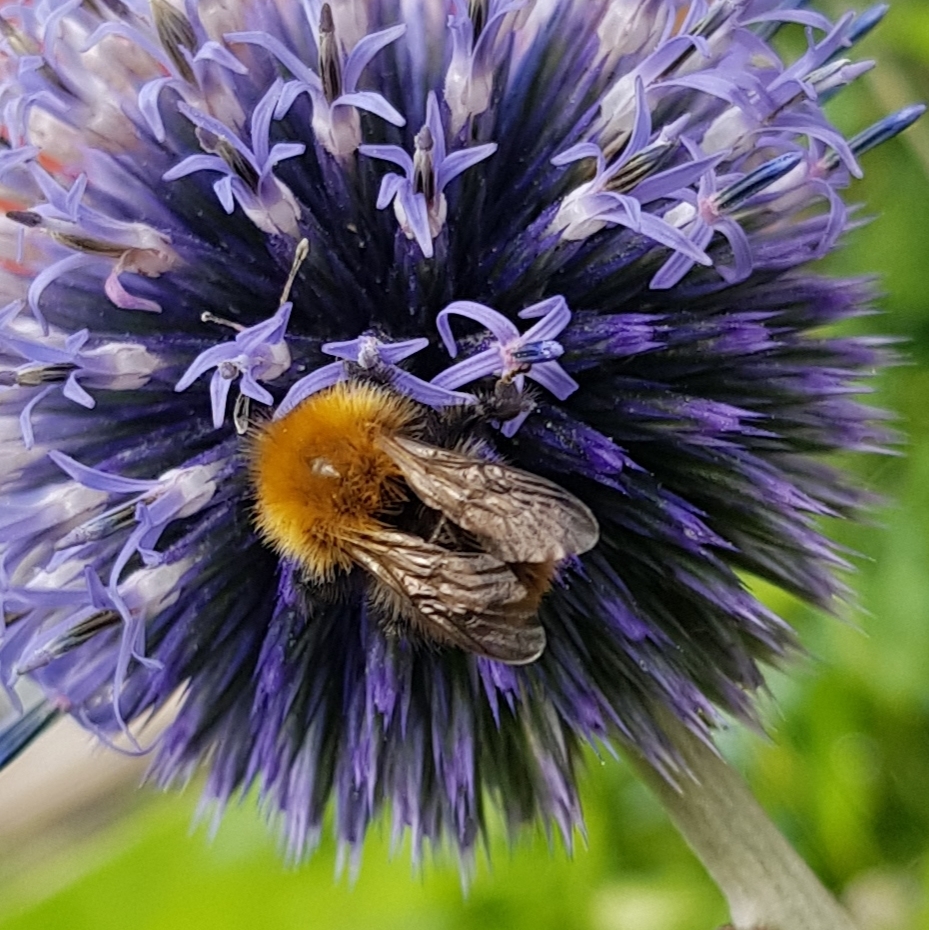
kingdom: Animalia
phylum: Arthropoda
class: Insecta
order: Hymenoptera
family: Apidae
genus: Bombus
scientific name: Bombus pascuorum
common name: Common carder bee
